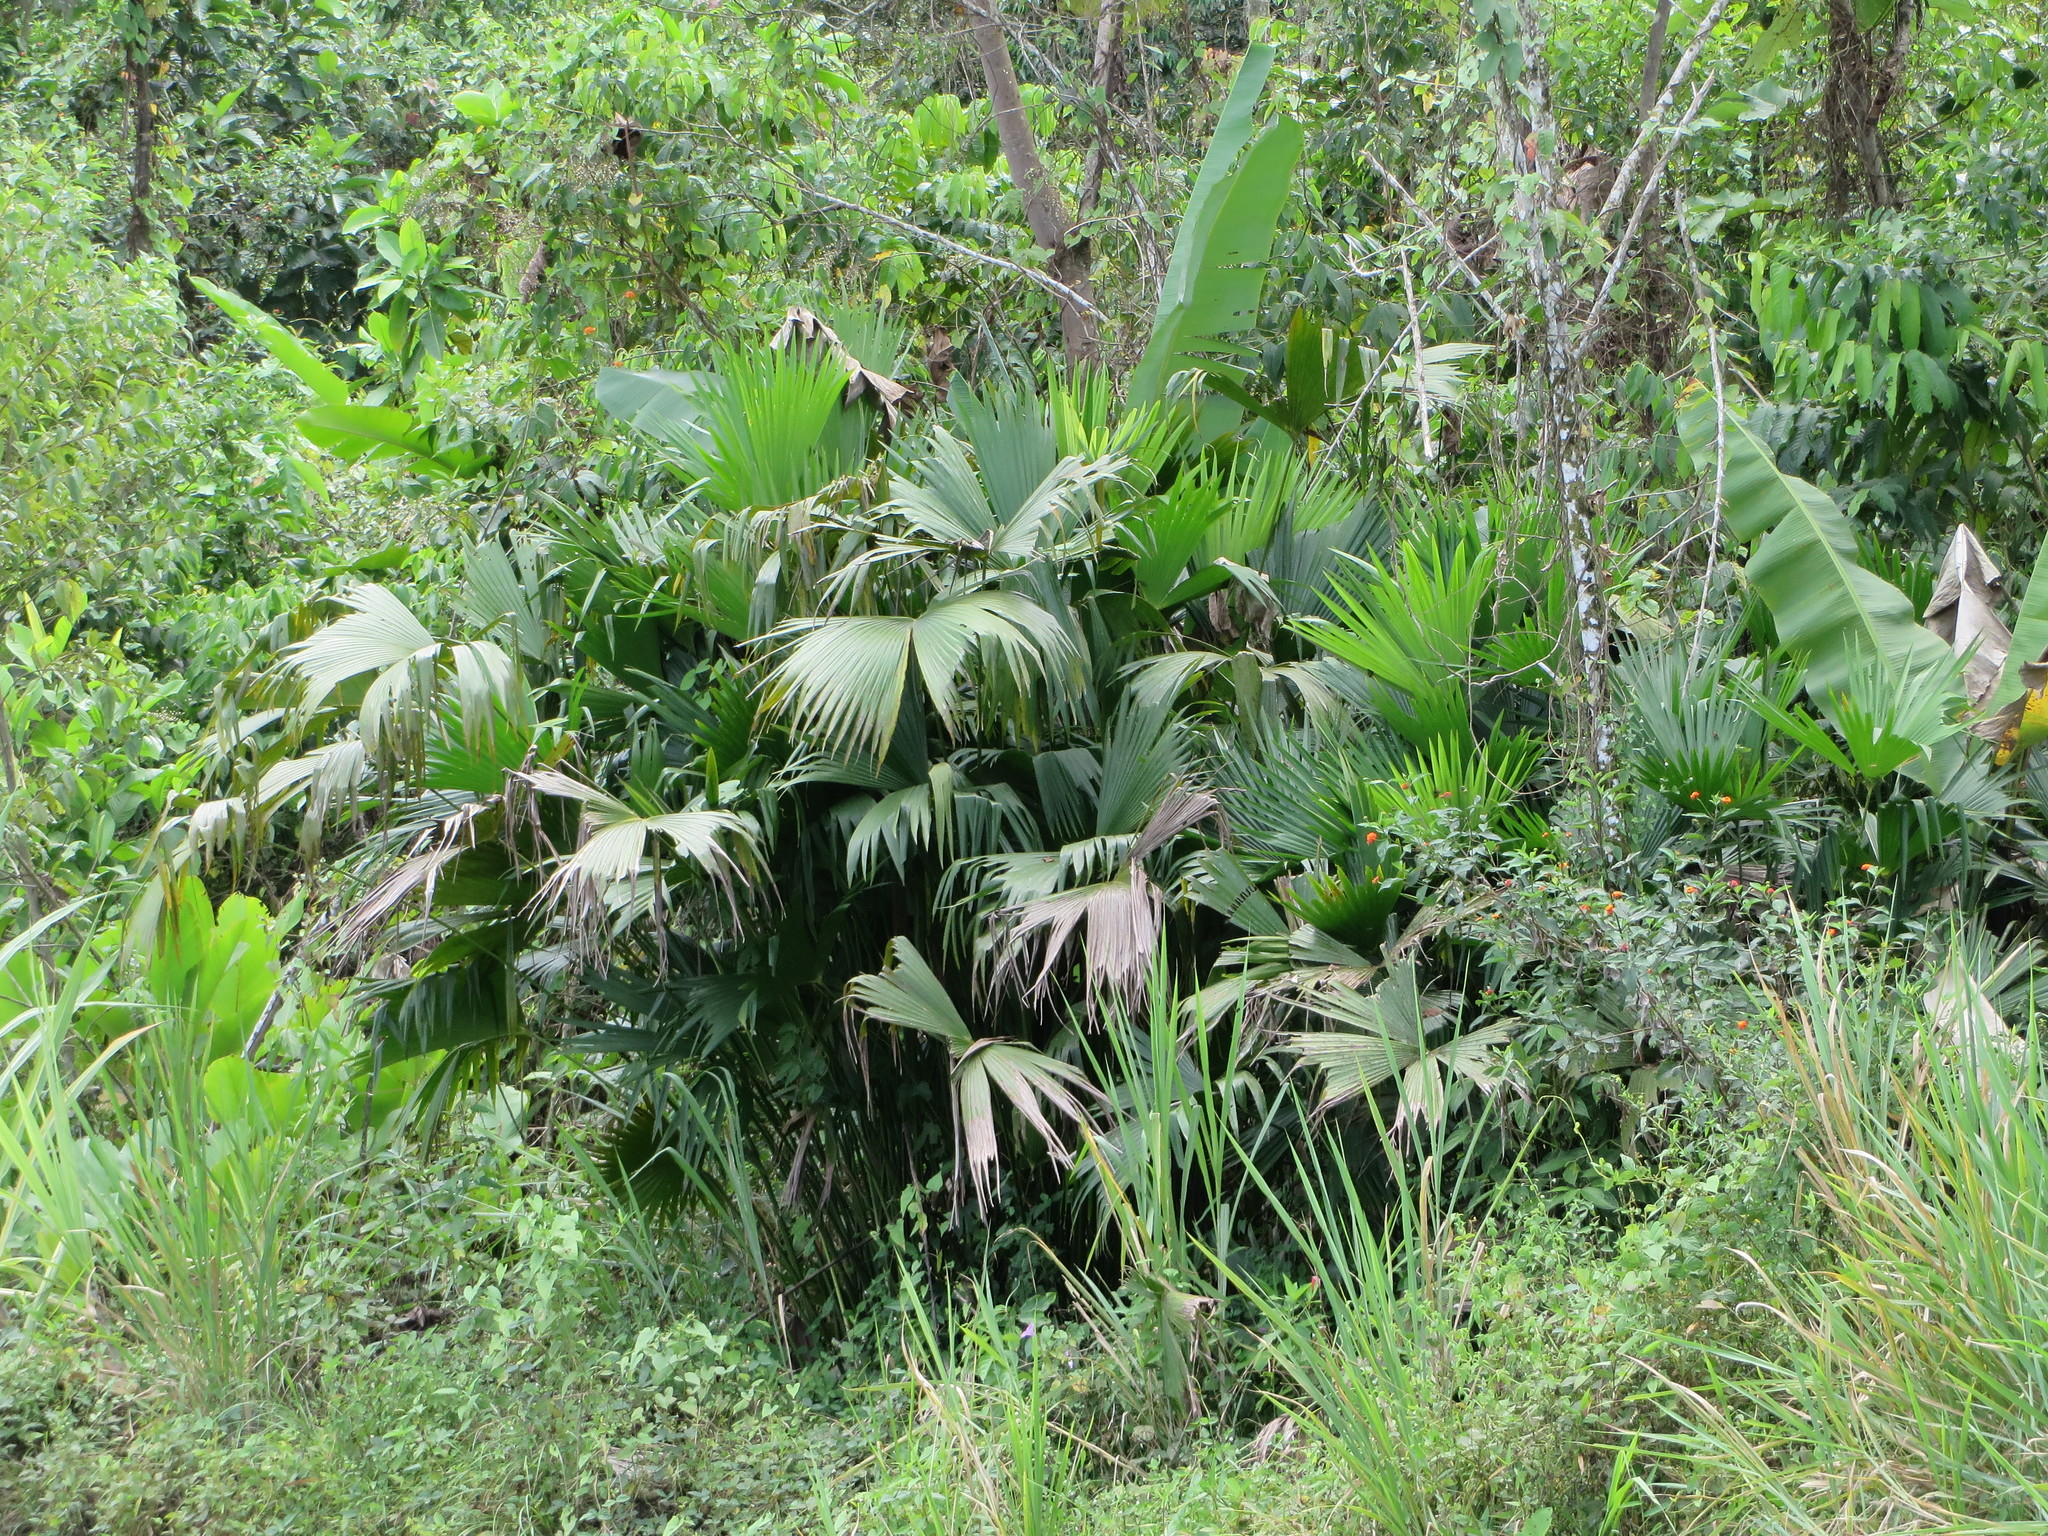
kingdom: Plantae
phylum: Tracheophyta
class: Liliopsida
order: Pandanales
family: Cyclanthaceae
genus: Carludovica
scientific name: Carludovica palmata
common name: Panama hat plant
